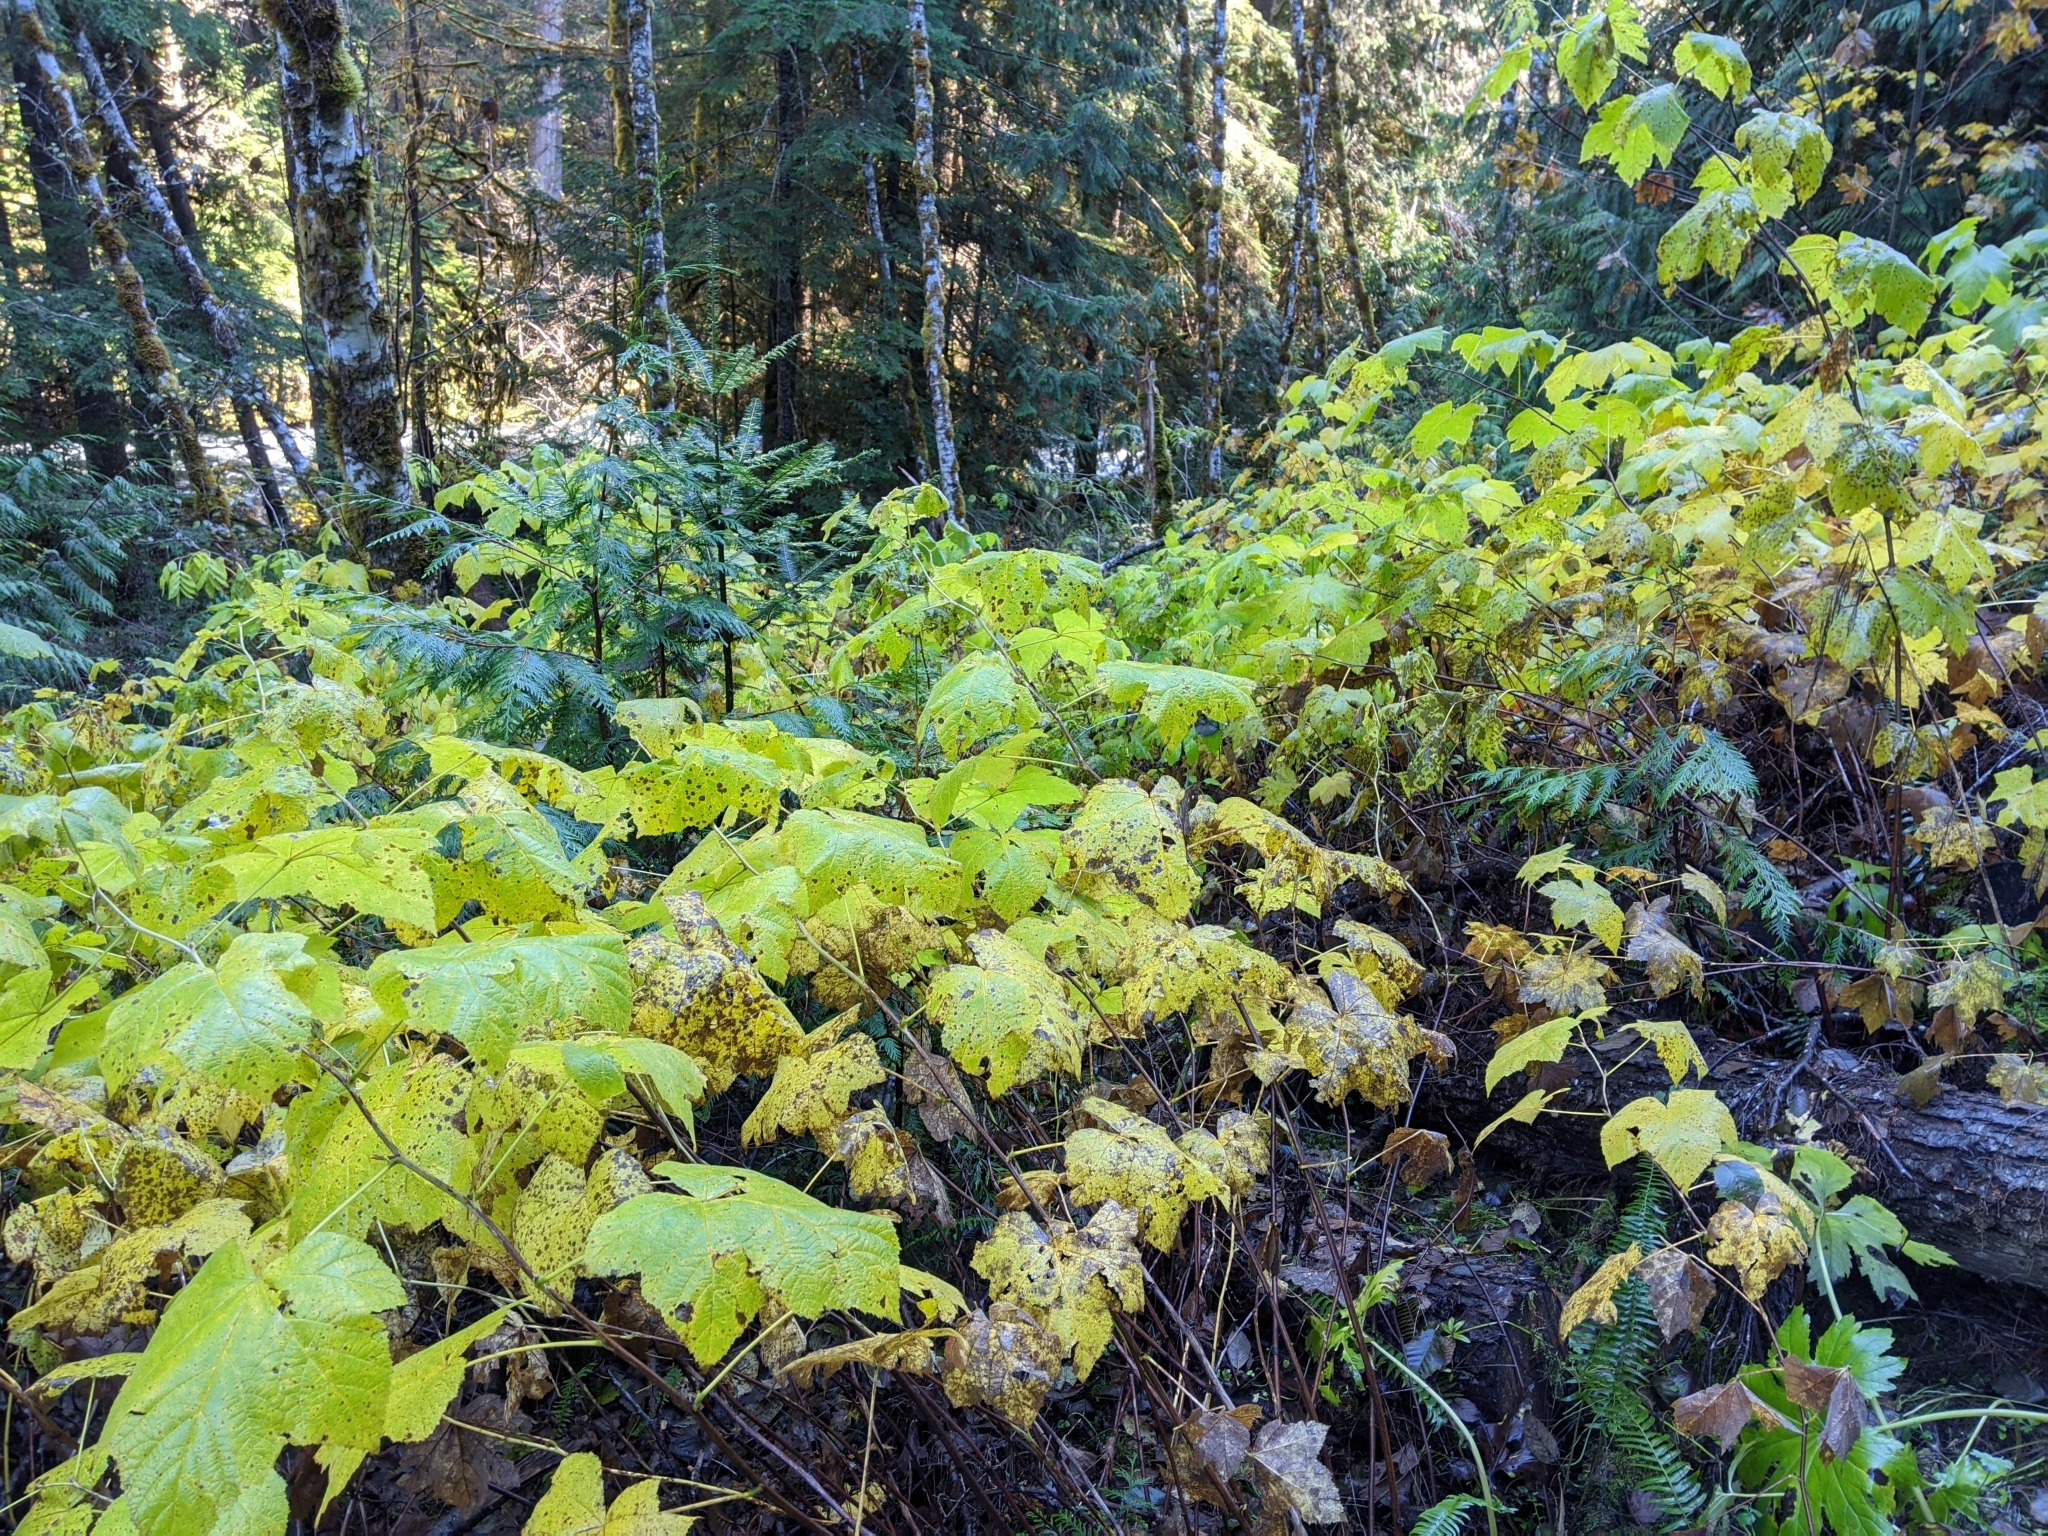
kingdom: Plantae
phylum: Tracheophyta
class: Magnoliopsida
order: Rosales
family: Rosaceae
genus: Rubus
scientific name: Rubus parviflorus
